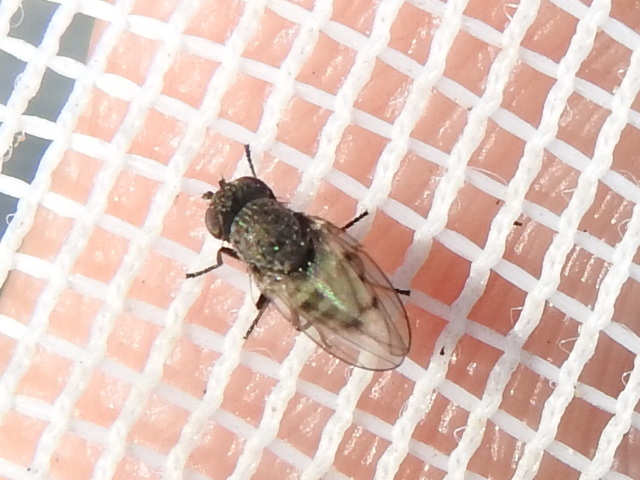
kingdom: Animalia
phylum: Arthropoda
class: Insecta
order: Diptera
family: Ephydridae
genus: Paralimna
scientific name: Paralimna punctipennis
